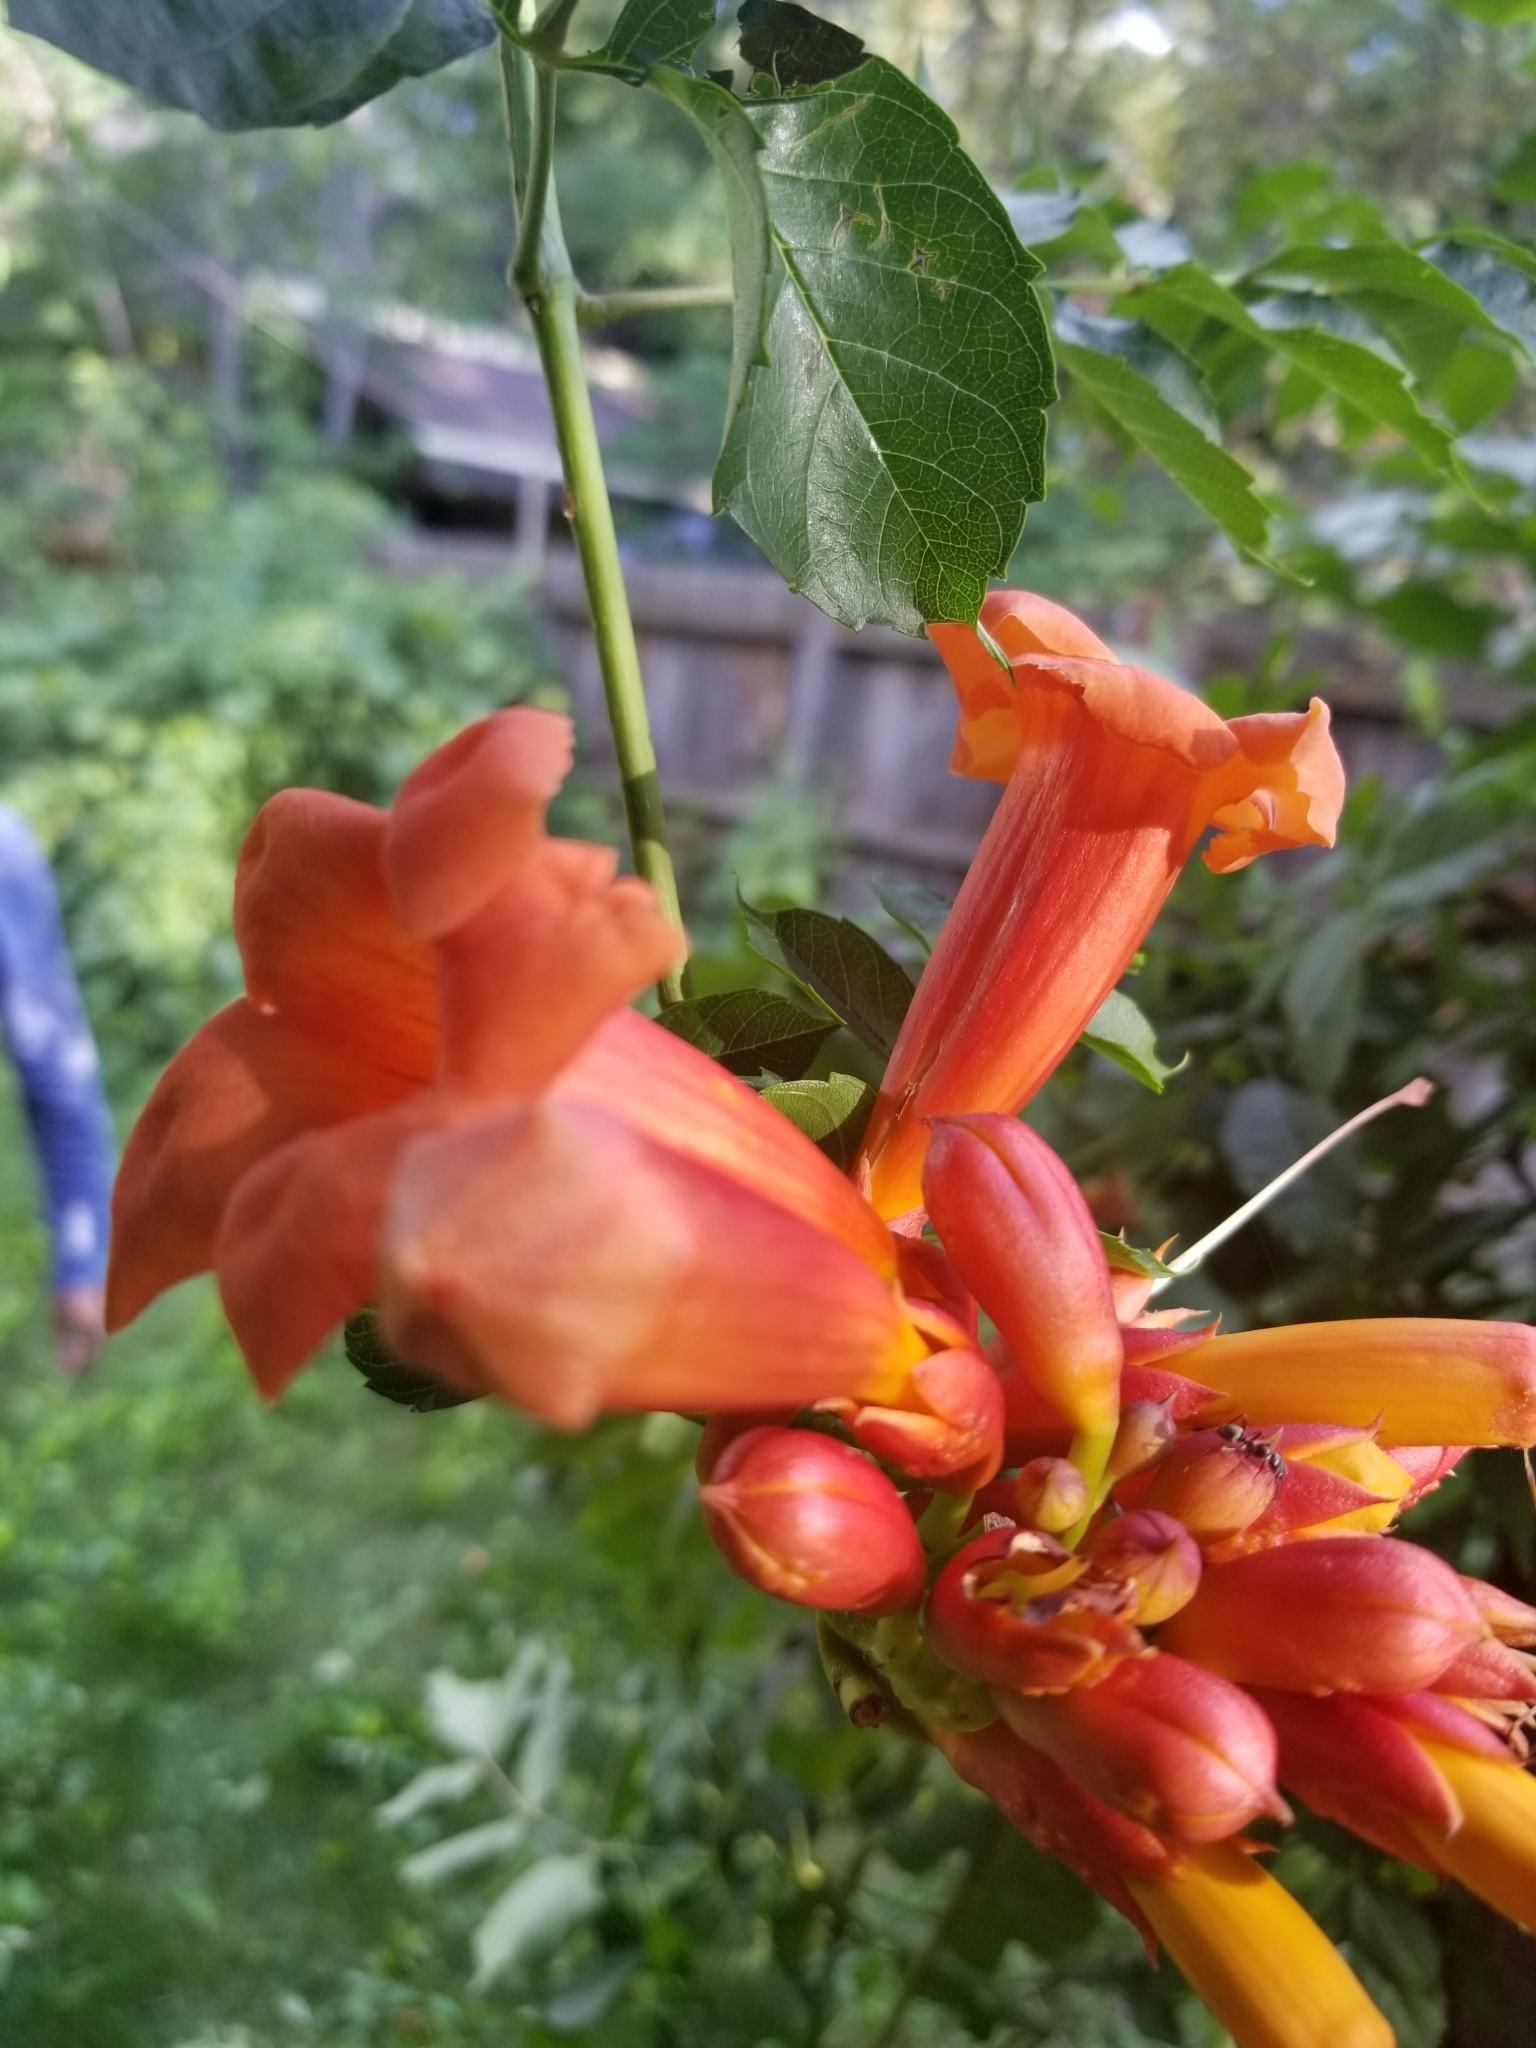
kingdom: Plantae
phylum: Tracheophyta
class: Magnoliopsida
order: Lamiales
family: Bignoniaceae
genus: Campsis
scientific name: Campsis radicans
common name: Trumpet-creeper
